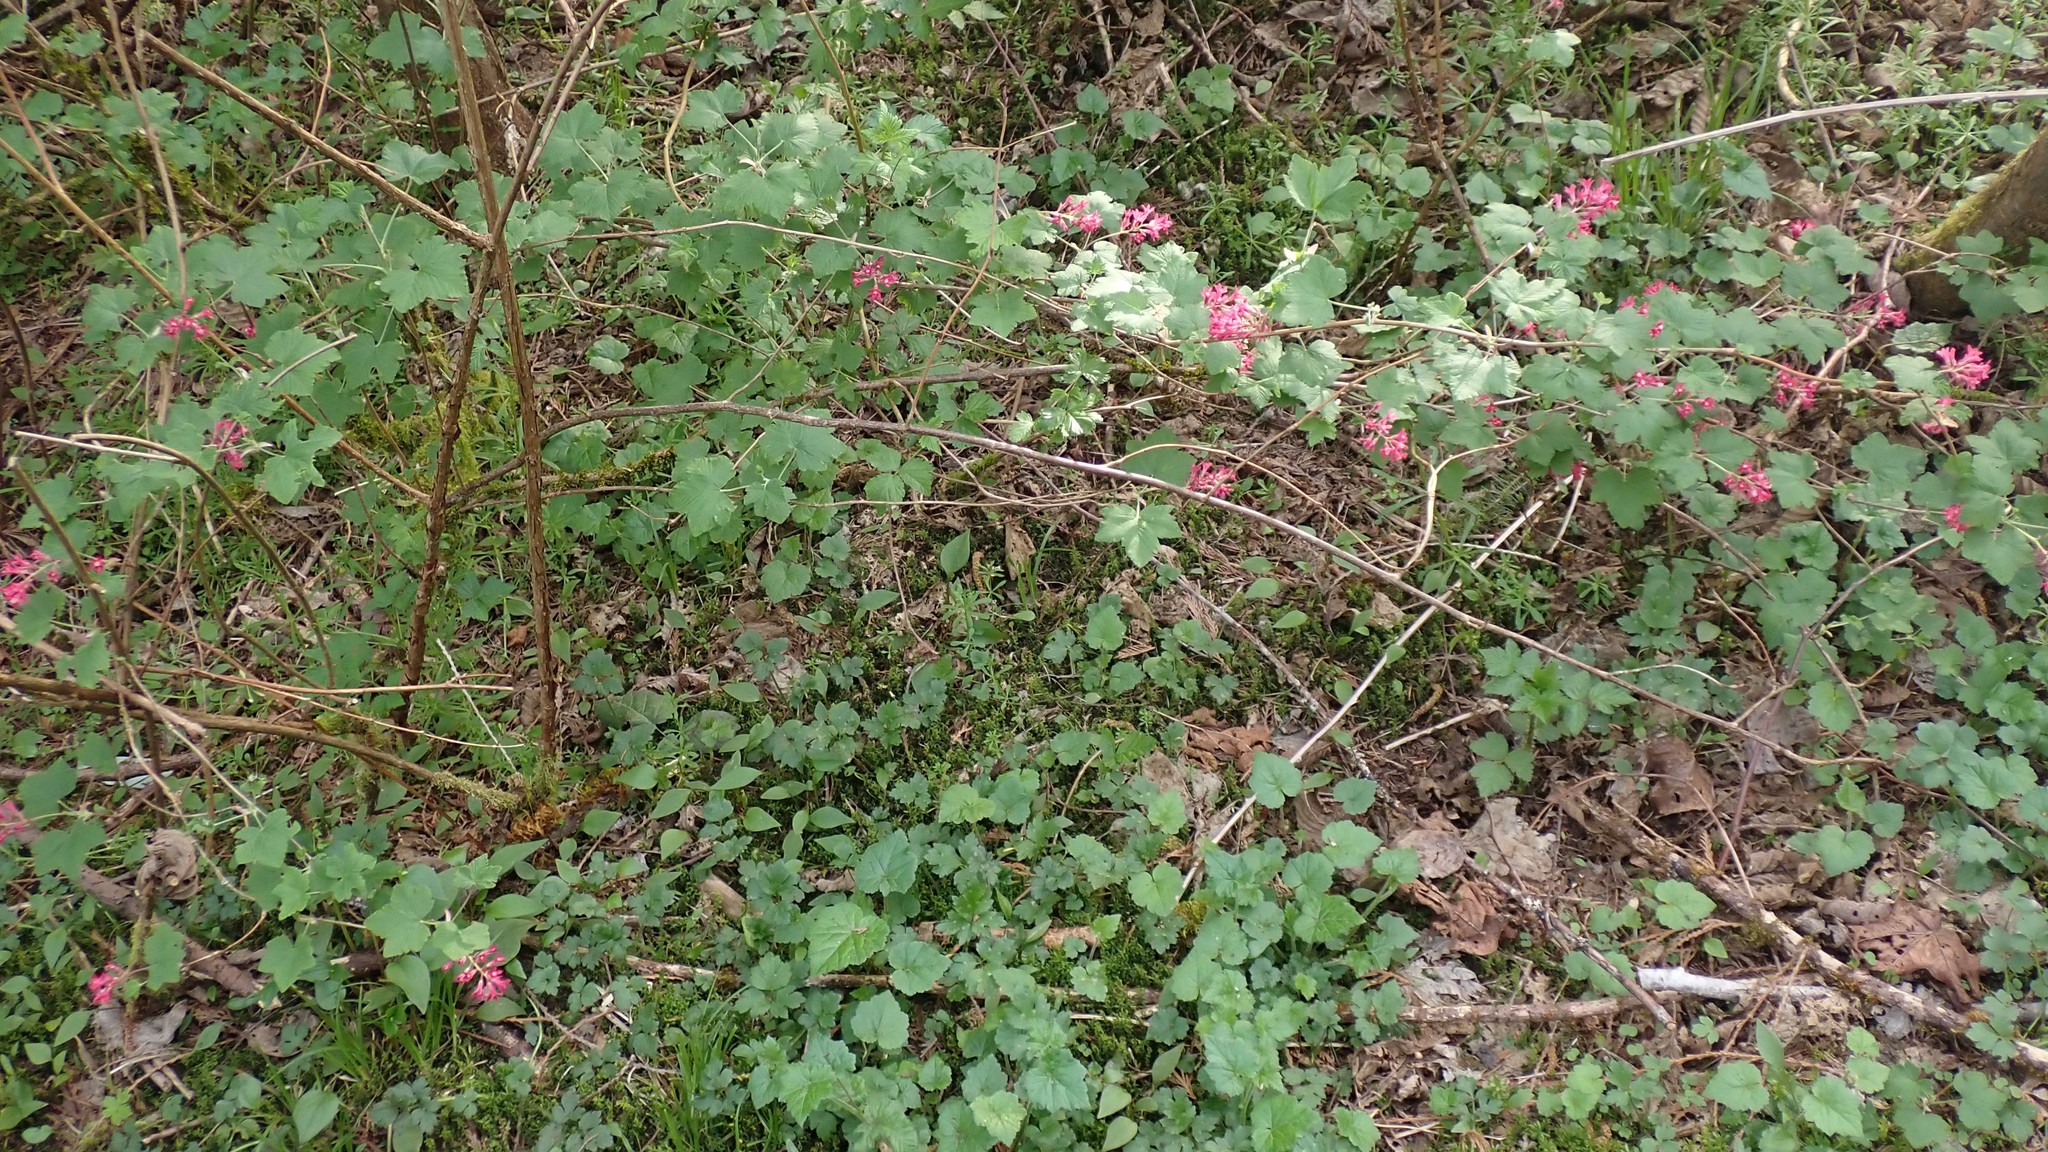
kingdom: Plantae
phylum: Tracheophyta
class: Magnoliopsida
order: Saxifragales
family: Grossulariaceae
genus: Ribes
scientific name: Ribes sanguineum
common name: Flowering currant
